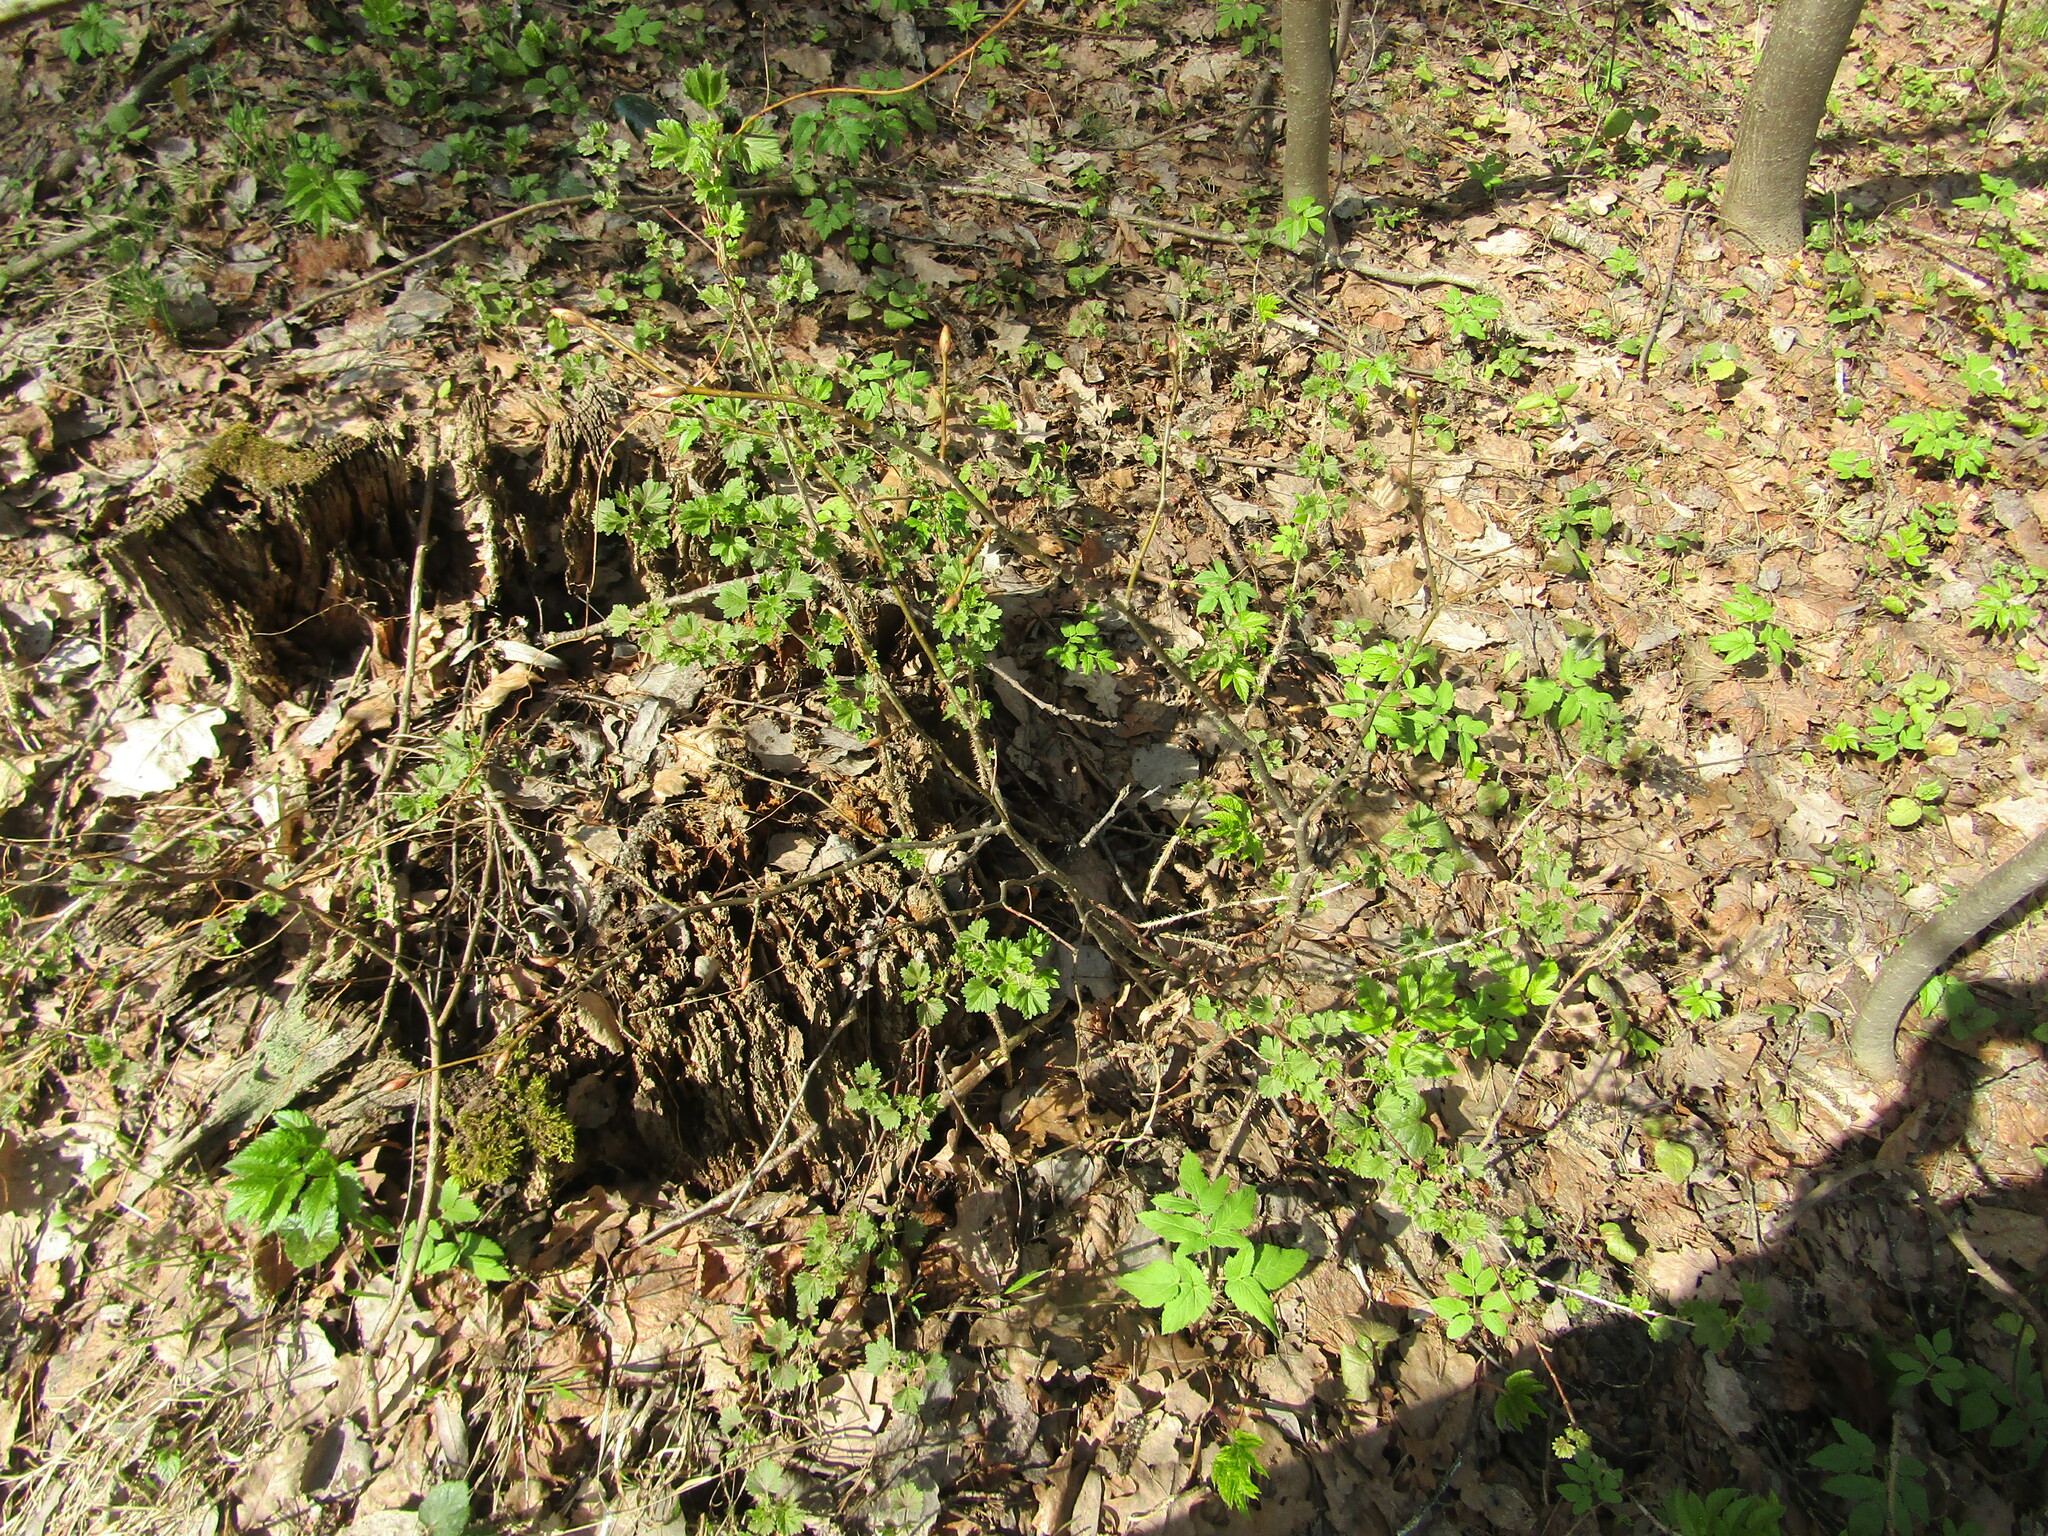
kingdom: Plantae
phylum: Tracheophyta
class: Magnoliopsida
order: Saxifragales
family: Grossulariaceae
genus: Ribes
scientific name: Ribes uva-crispa
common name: Gooseberry
